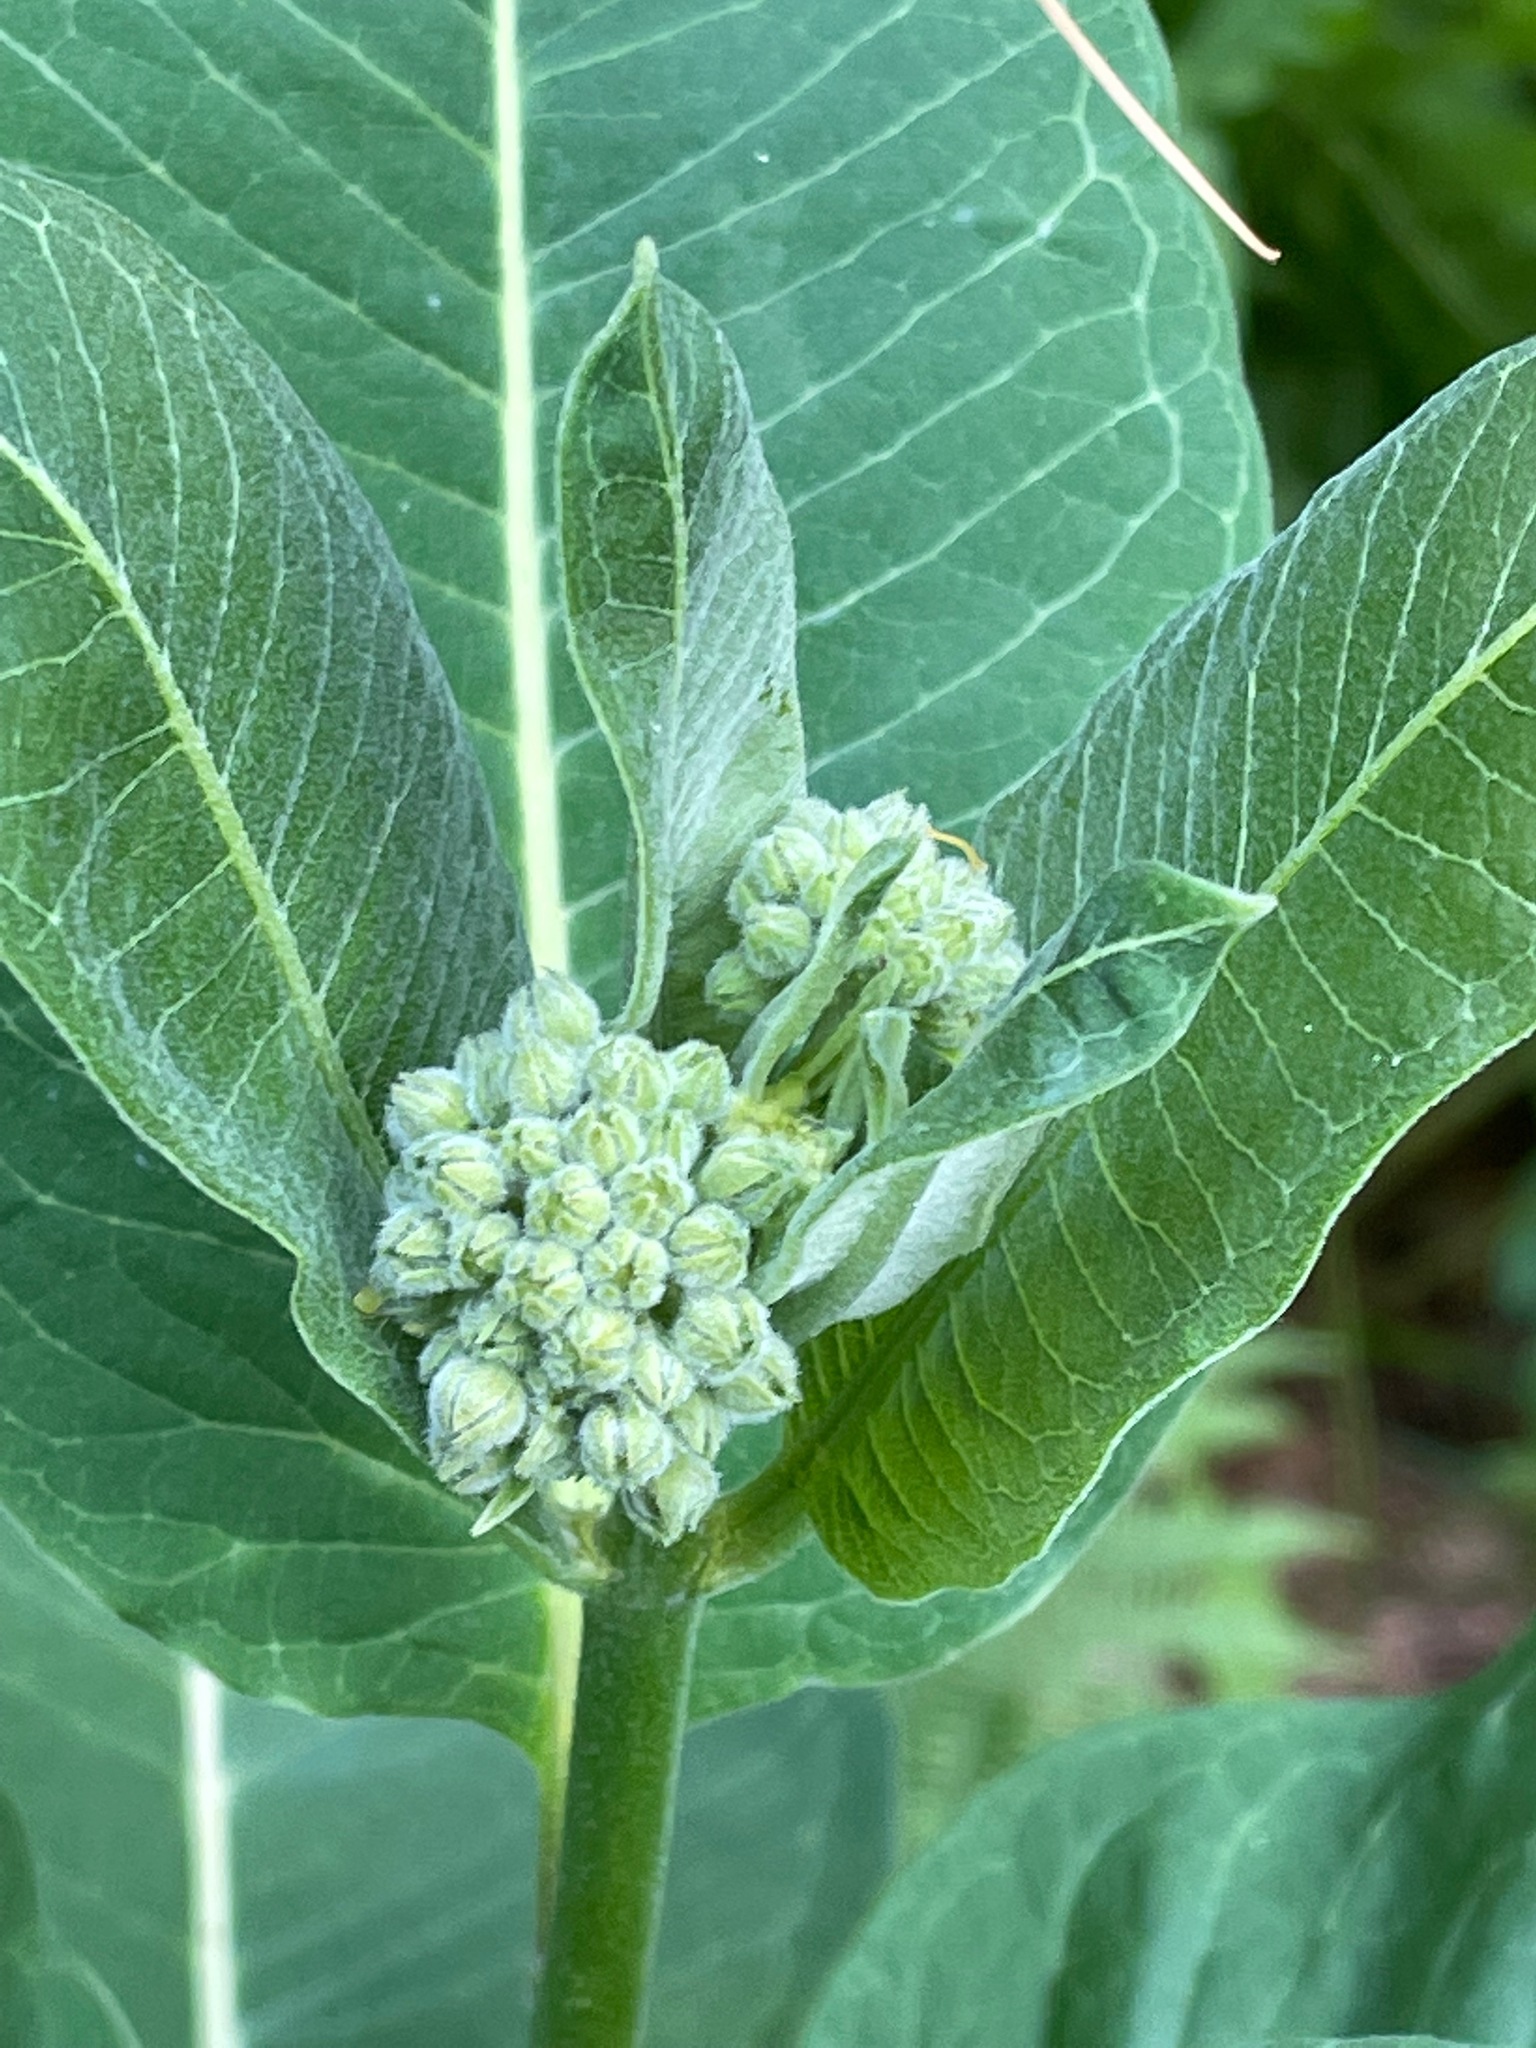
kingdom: Plantae
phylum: Tracheophyta
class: Magnoliopsida
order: Gentianales
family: Apocynaceae
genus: Asclepias
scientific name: Asclepias syriaca
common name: Common milkweed
